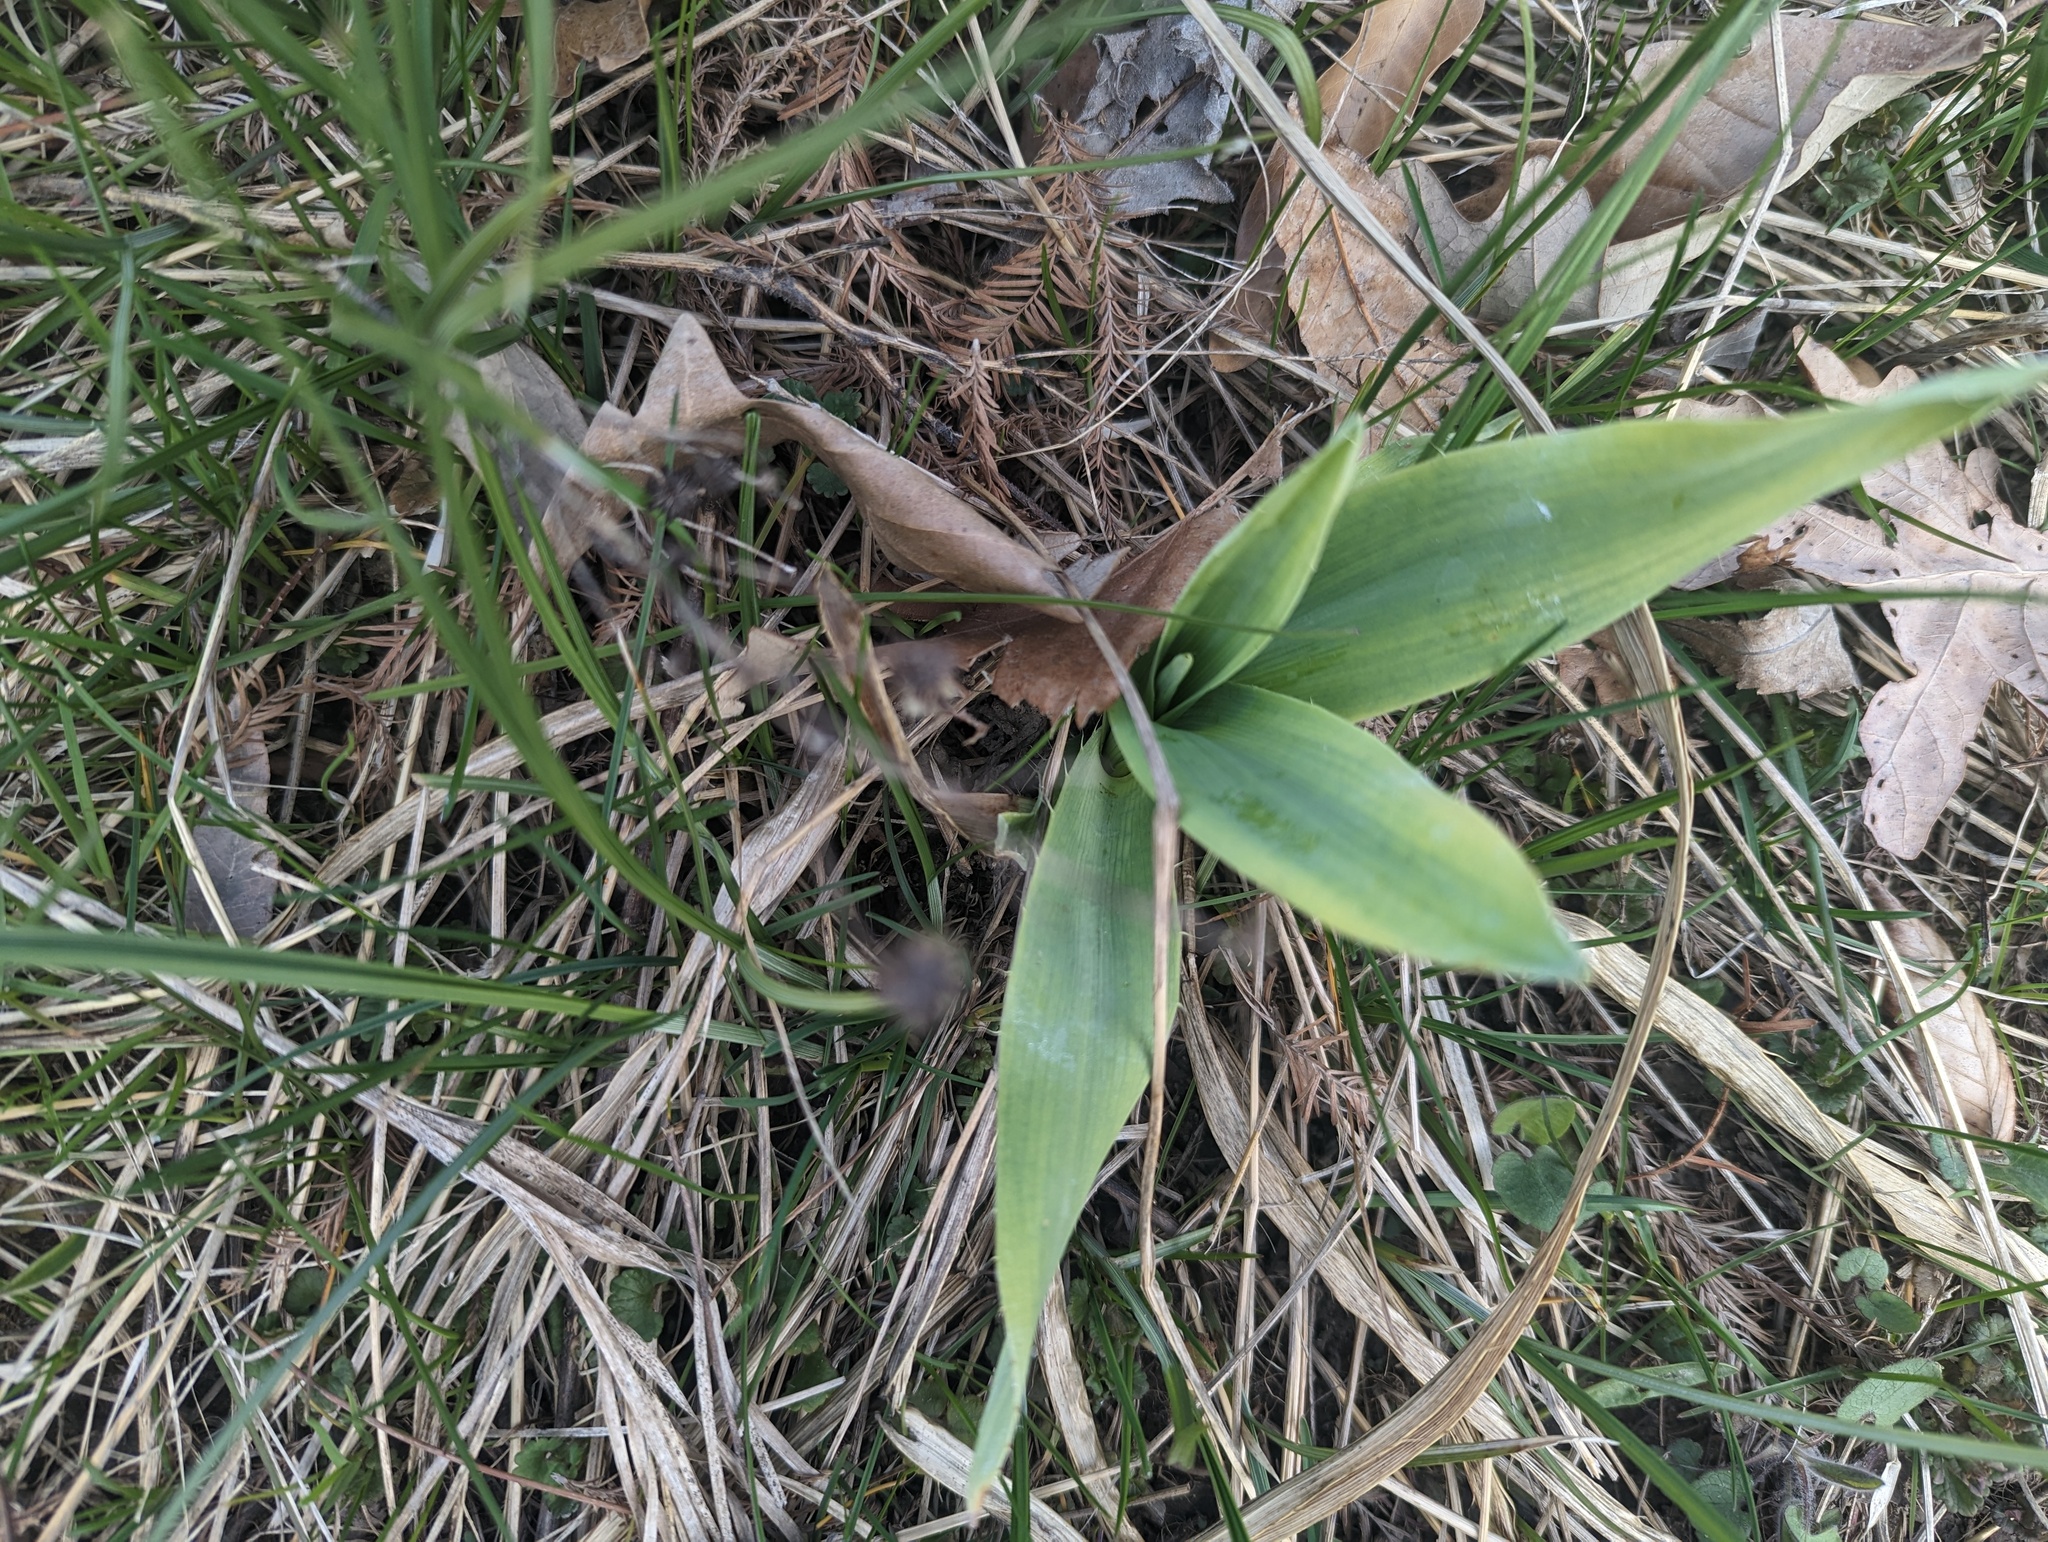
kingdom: Plantae
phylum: Tracheophyta
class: Magnoliopsida
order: Apiales
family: Apiaceae
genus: Eryngium
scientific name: Eryngium yuccifolium
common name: Button eryngo
